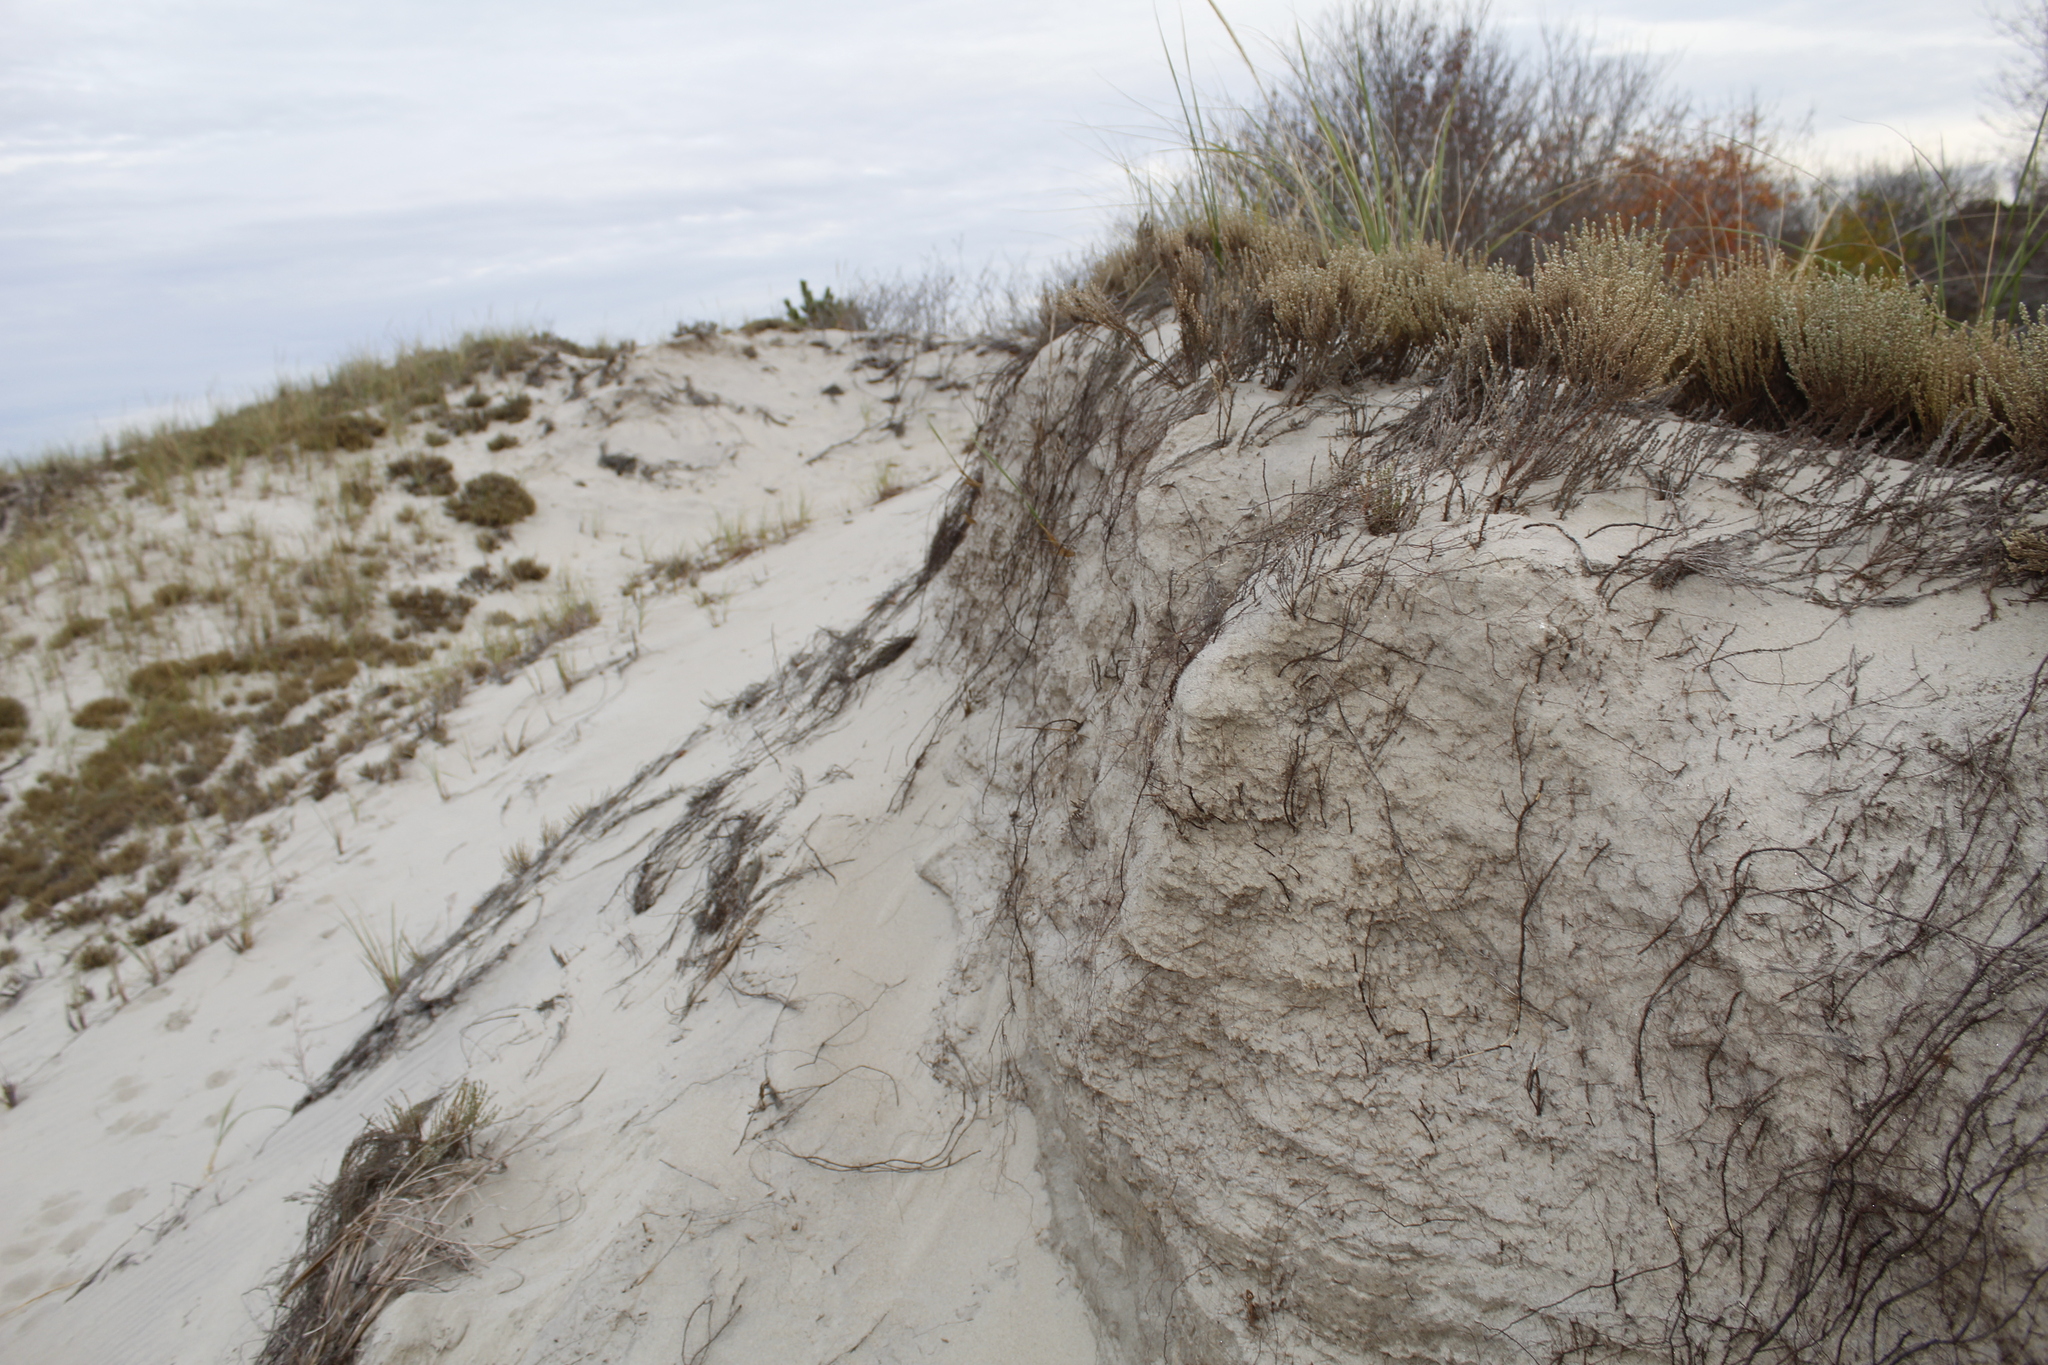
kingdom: Plantae
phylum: Tracheophyta
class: Magnoliopsida
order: Malvales
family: Cistaceae
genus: Hudsonia
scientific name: Hudsonia tomentosa
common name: Beach-heath
